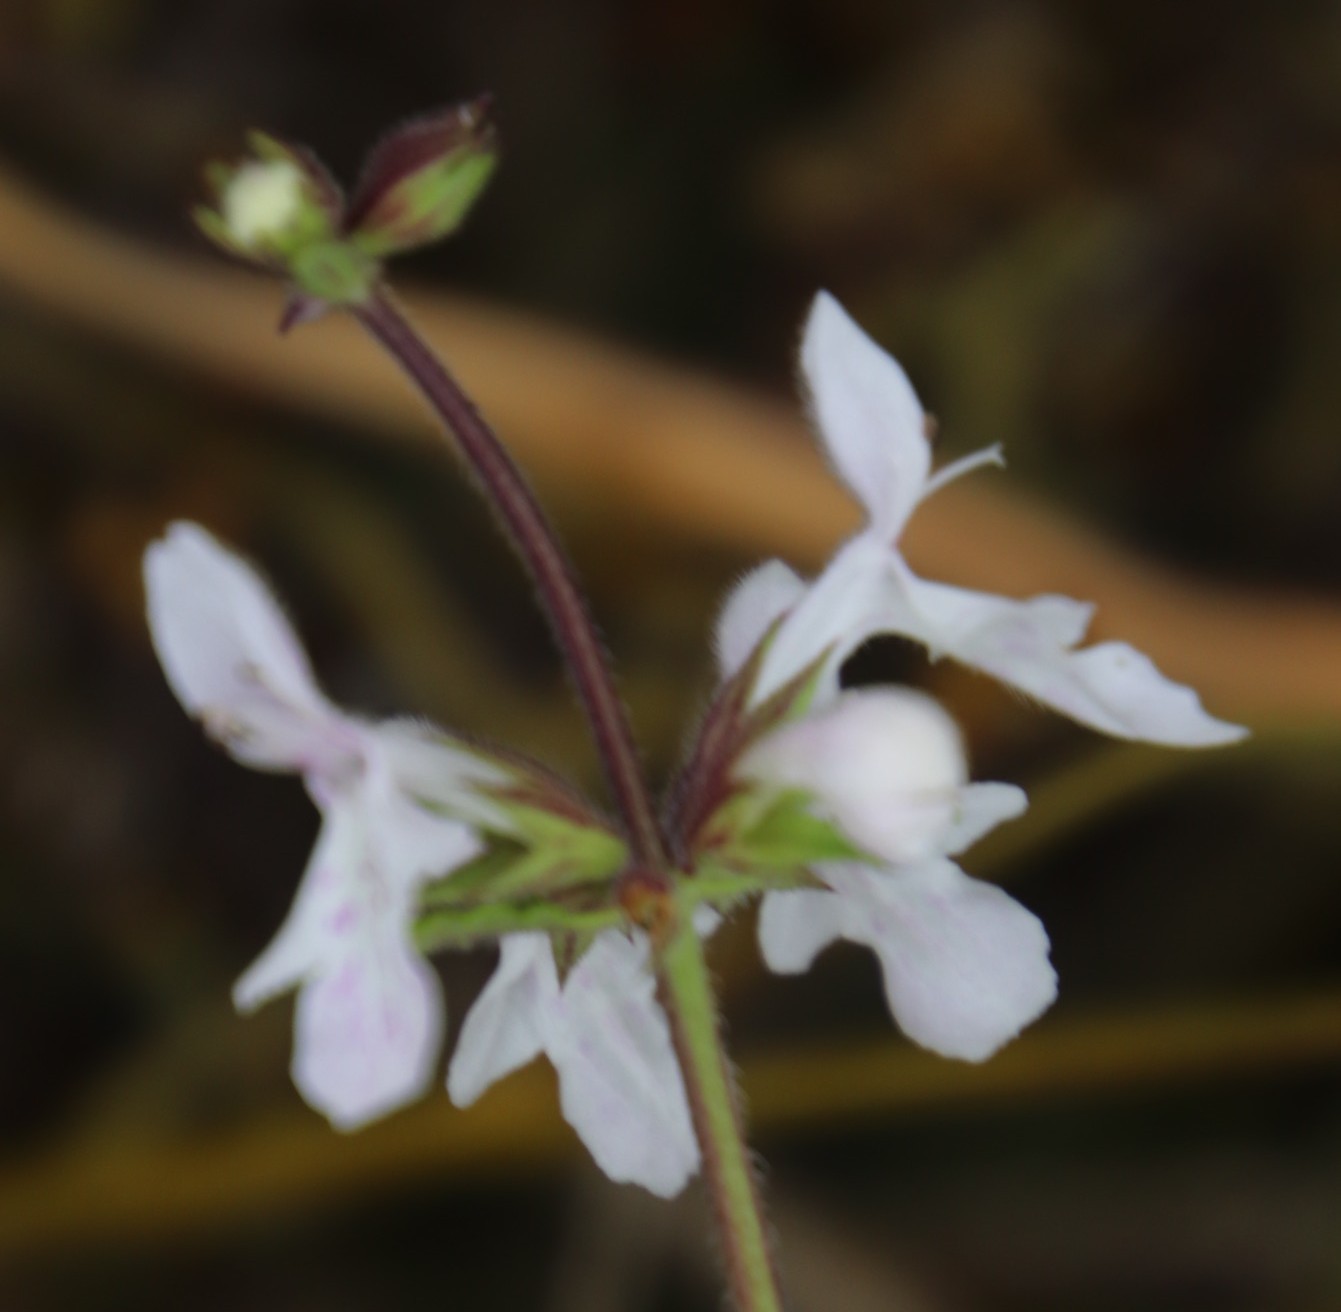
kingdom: Plantae
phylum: Tracheophyta
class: Magnoliopsida
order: Lamiales
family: Lamiaceae
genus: Stachys
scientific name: Stachys aethiopica
